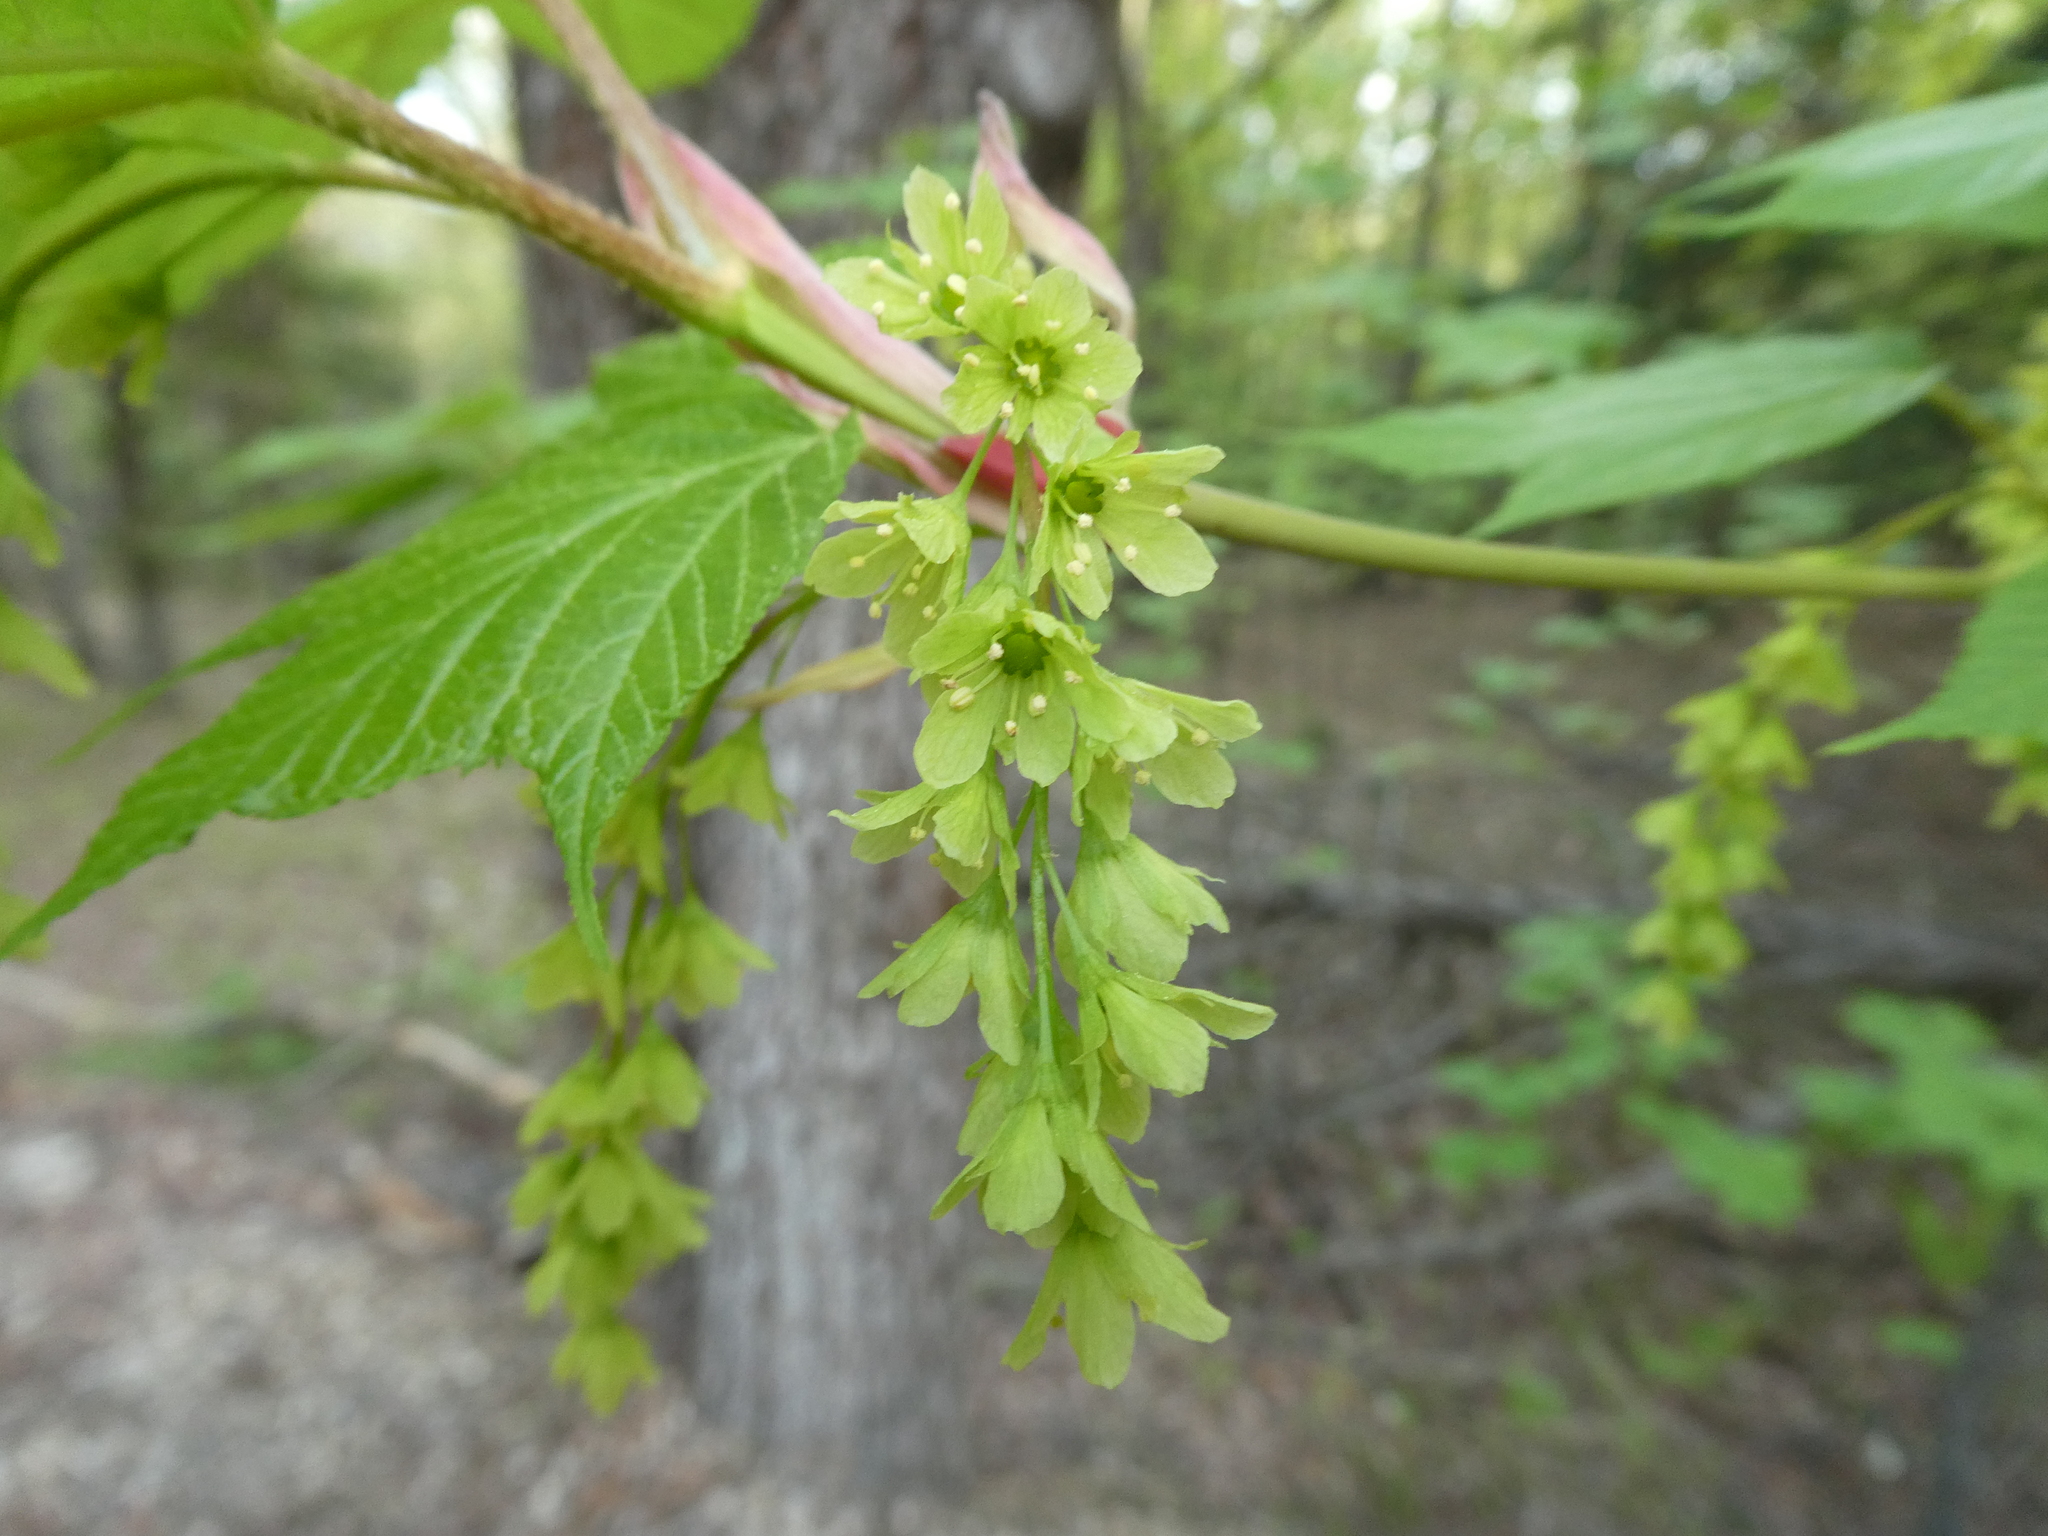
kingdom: Plantae
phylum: Tracheophyta
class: Magnoliopsida
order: Sapindales
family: Sapindaceae
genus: Acer
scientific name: Acer pensylvanicum
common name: Moosewood
